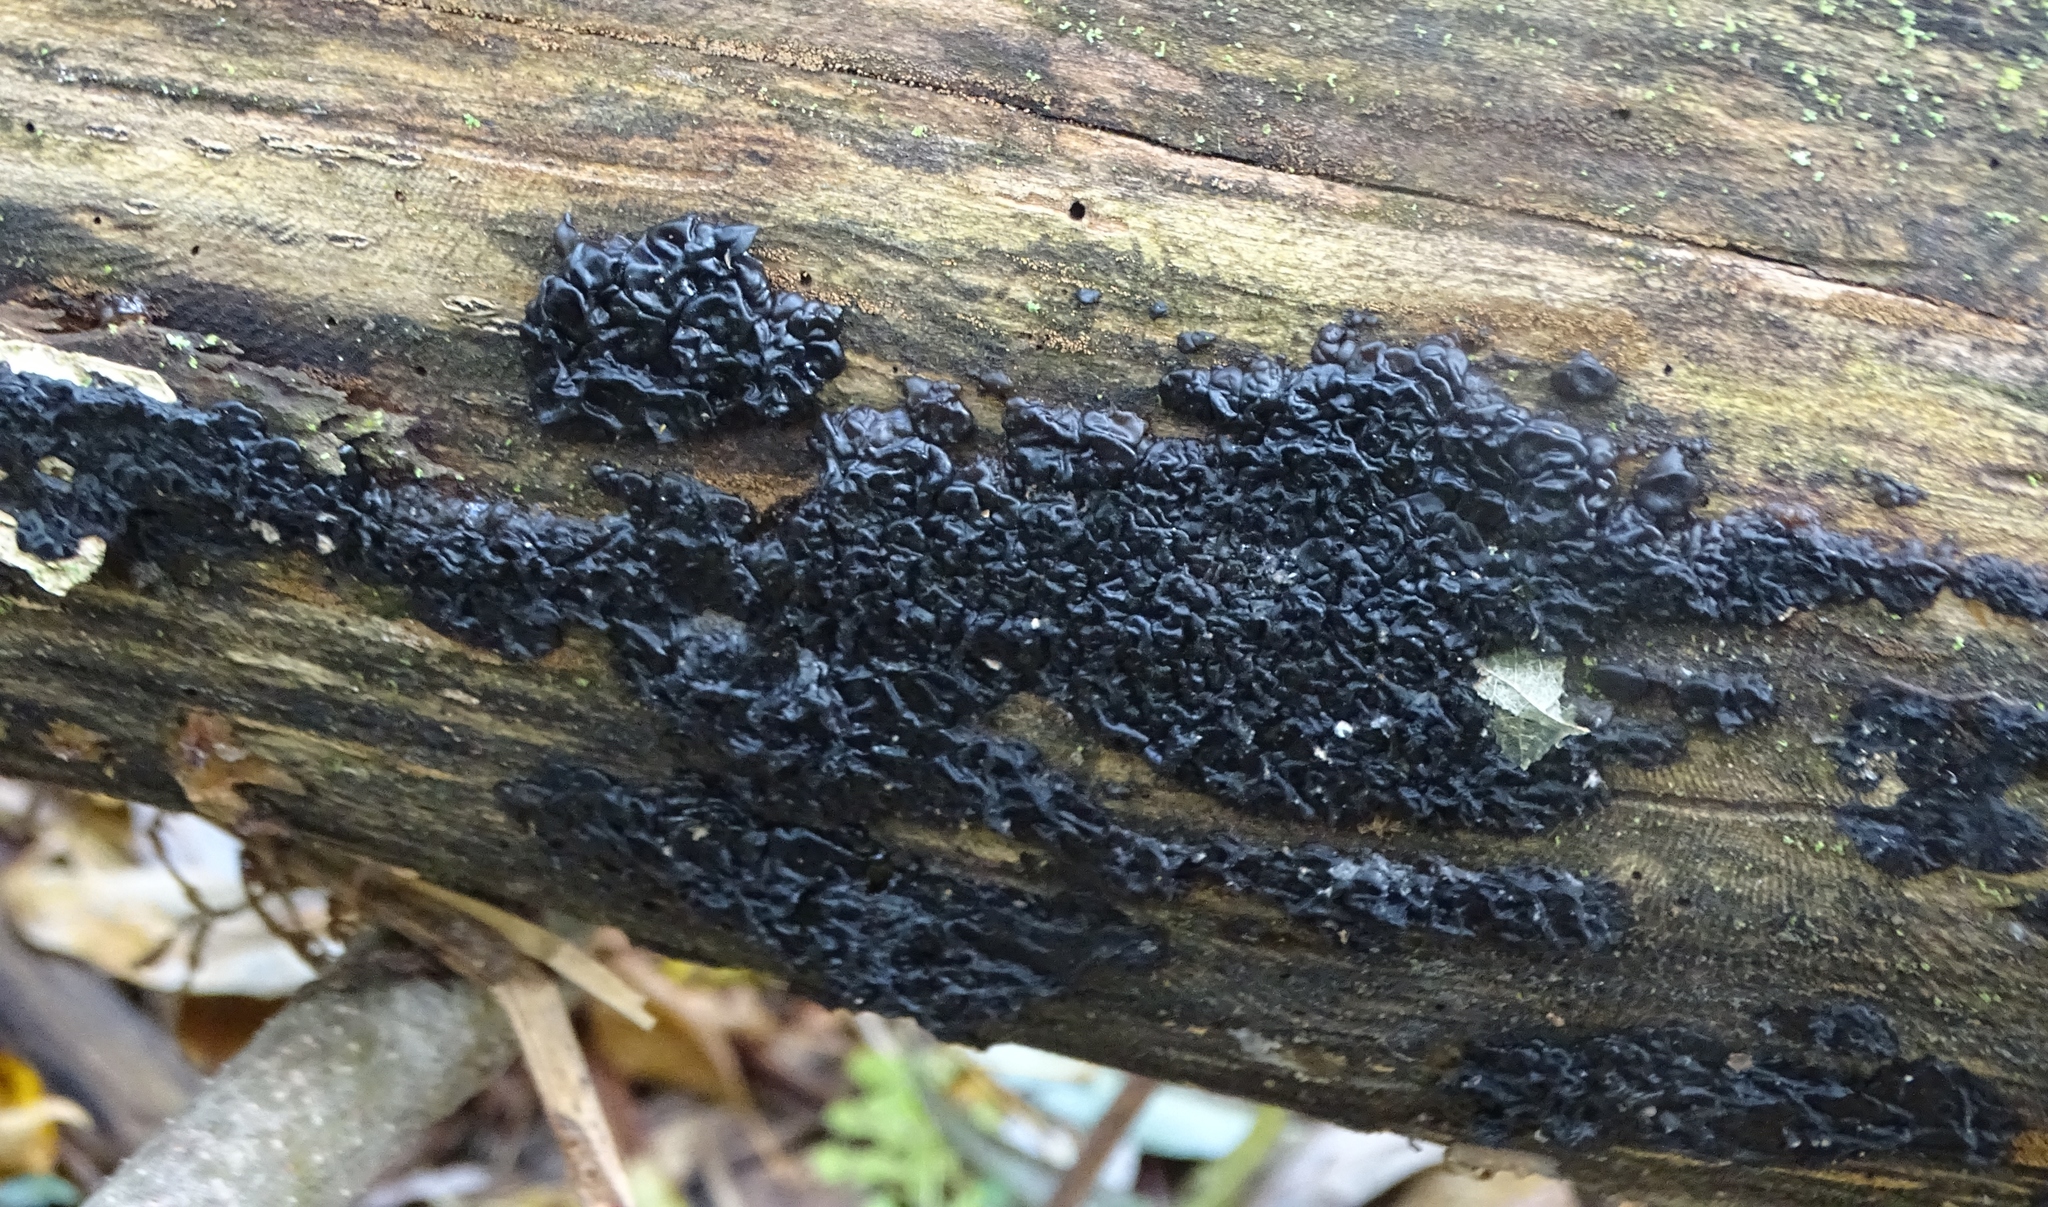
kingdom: Fungi
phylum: Basidiomycota
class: Agaricomycetes
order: Auriculariales
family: Auriculariaceae
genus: Exidia
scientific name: Exidia glandulosa
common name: Witches' butter
